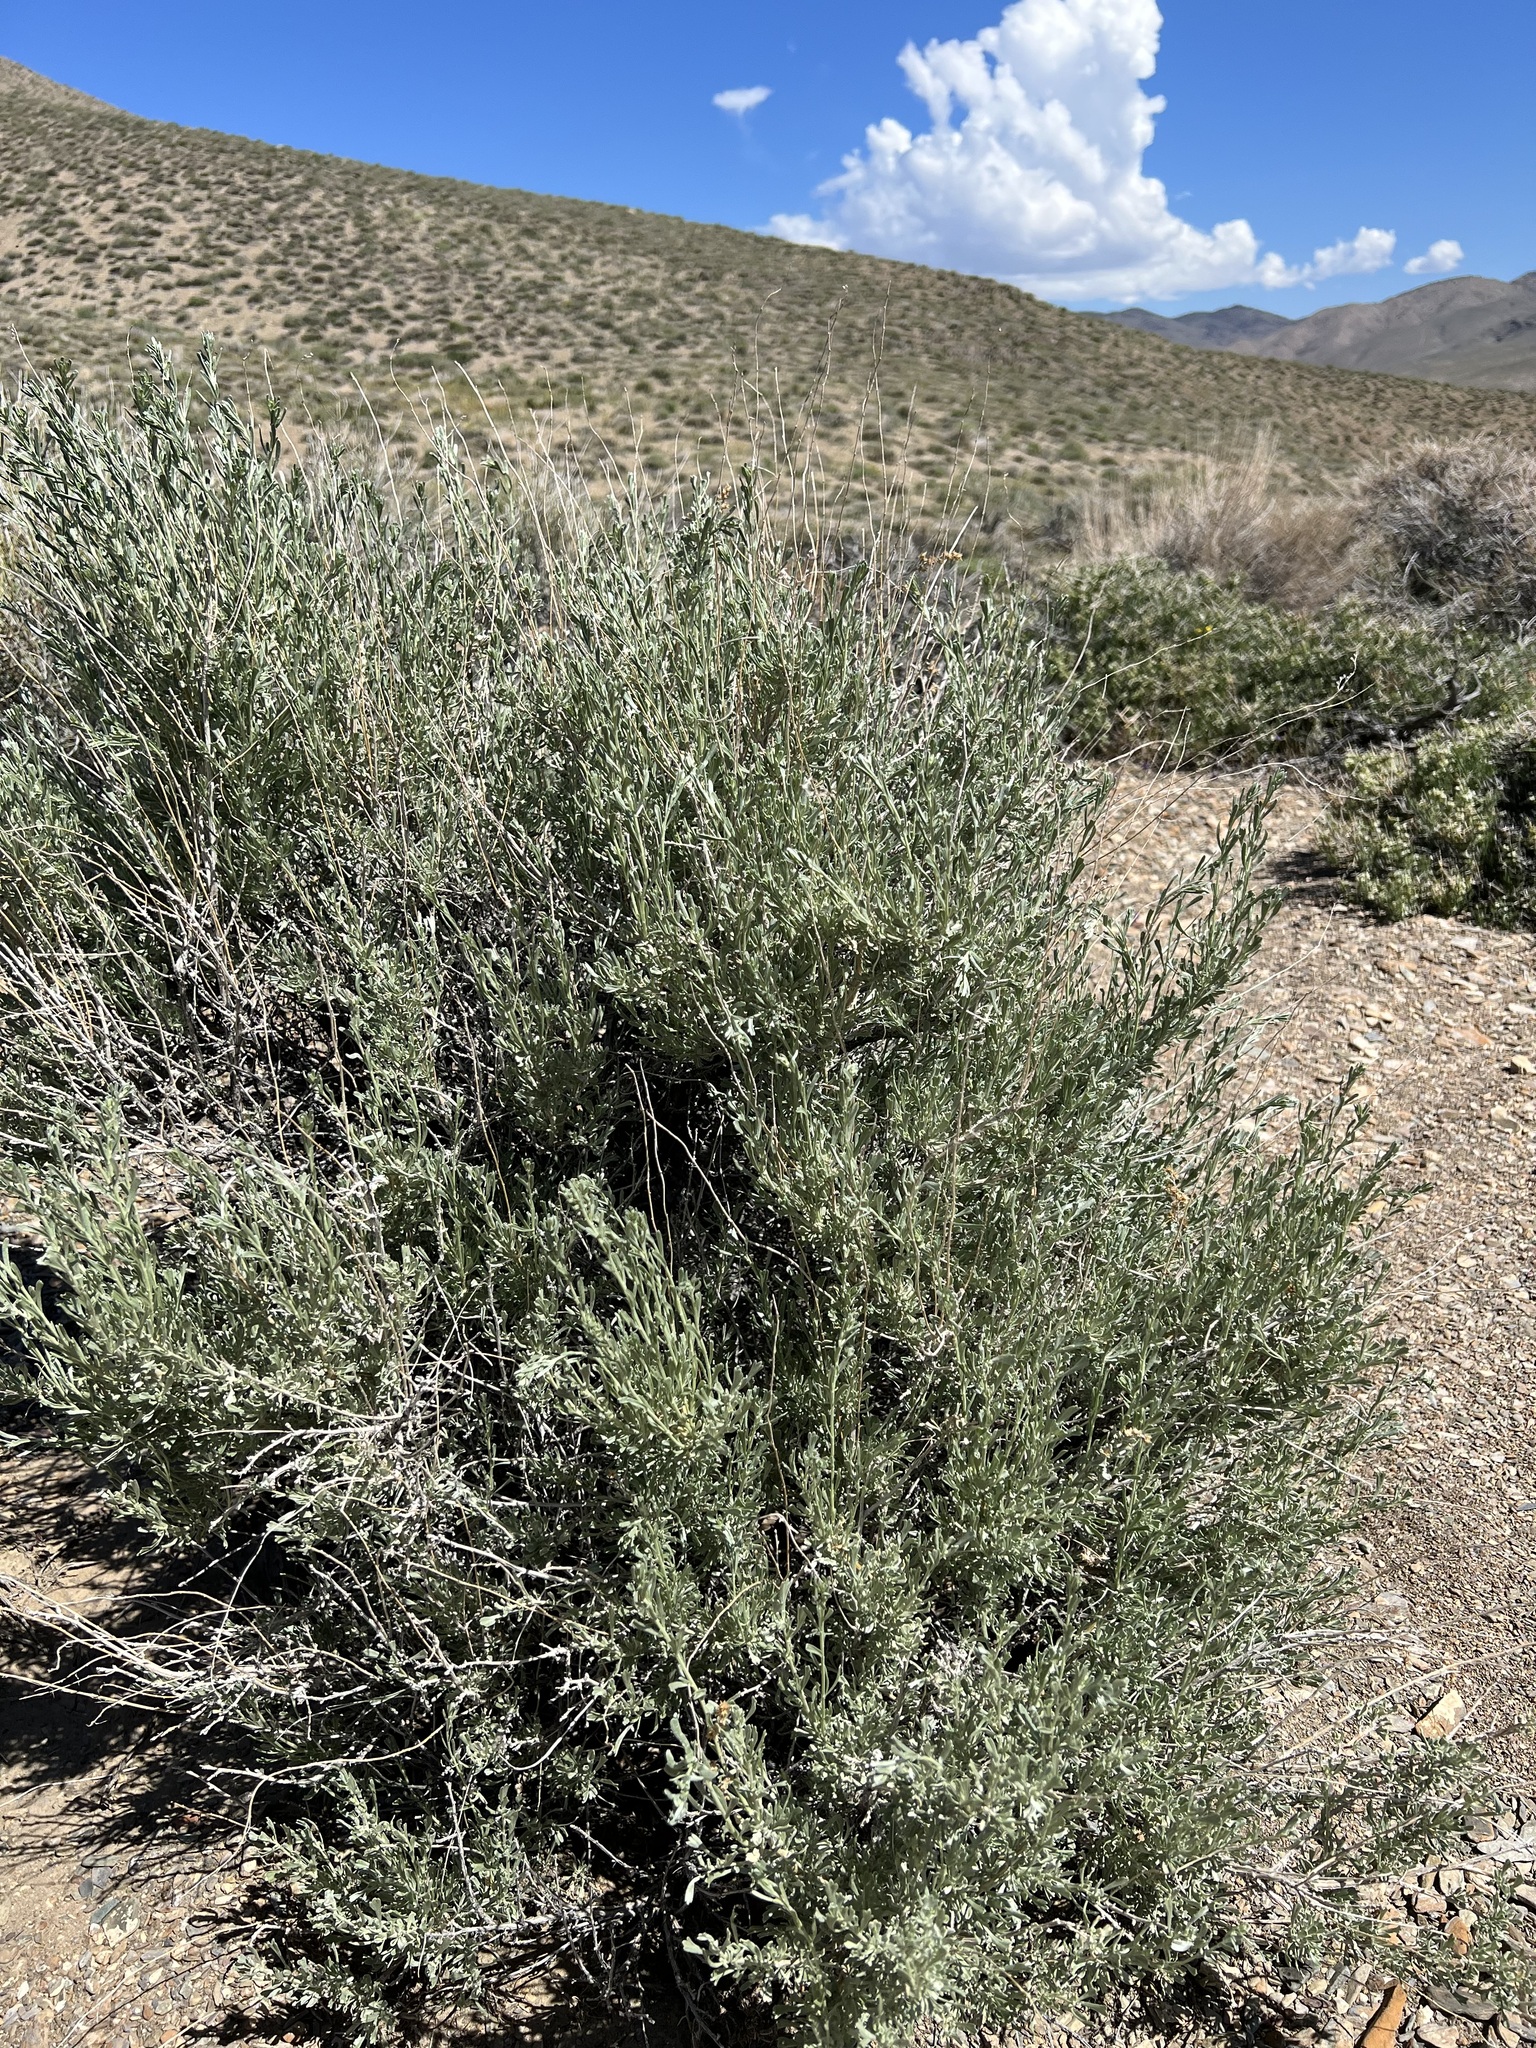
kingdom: Plantae
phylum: Tracheophyta
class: Magnoliopsida
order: Asterales
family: Asteraceae
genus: Artemisia
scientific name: Artemisia tridentata
